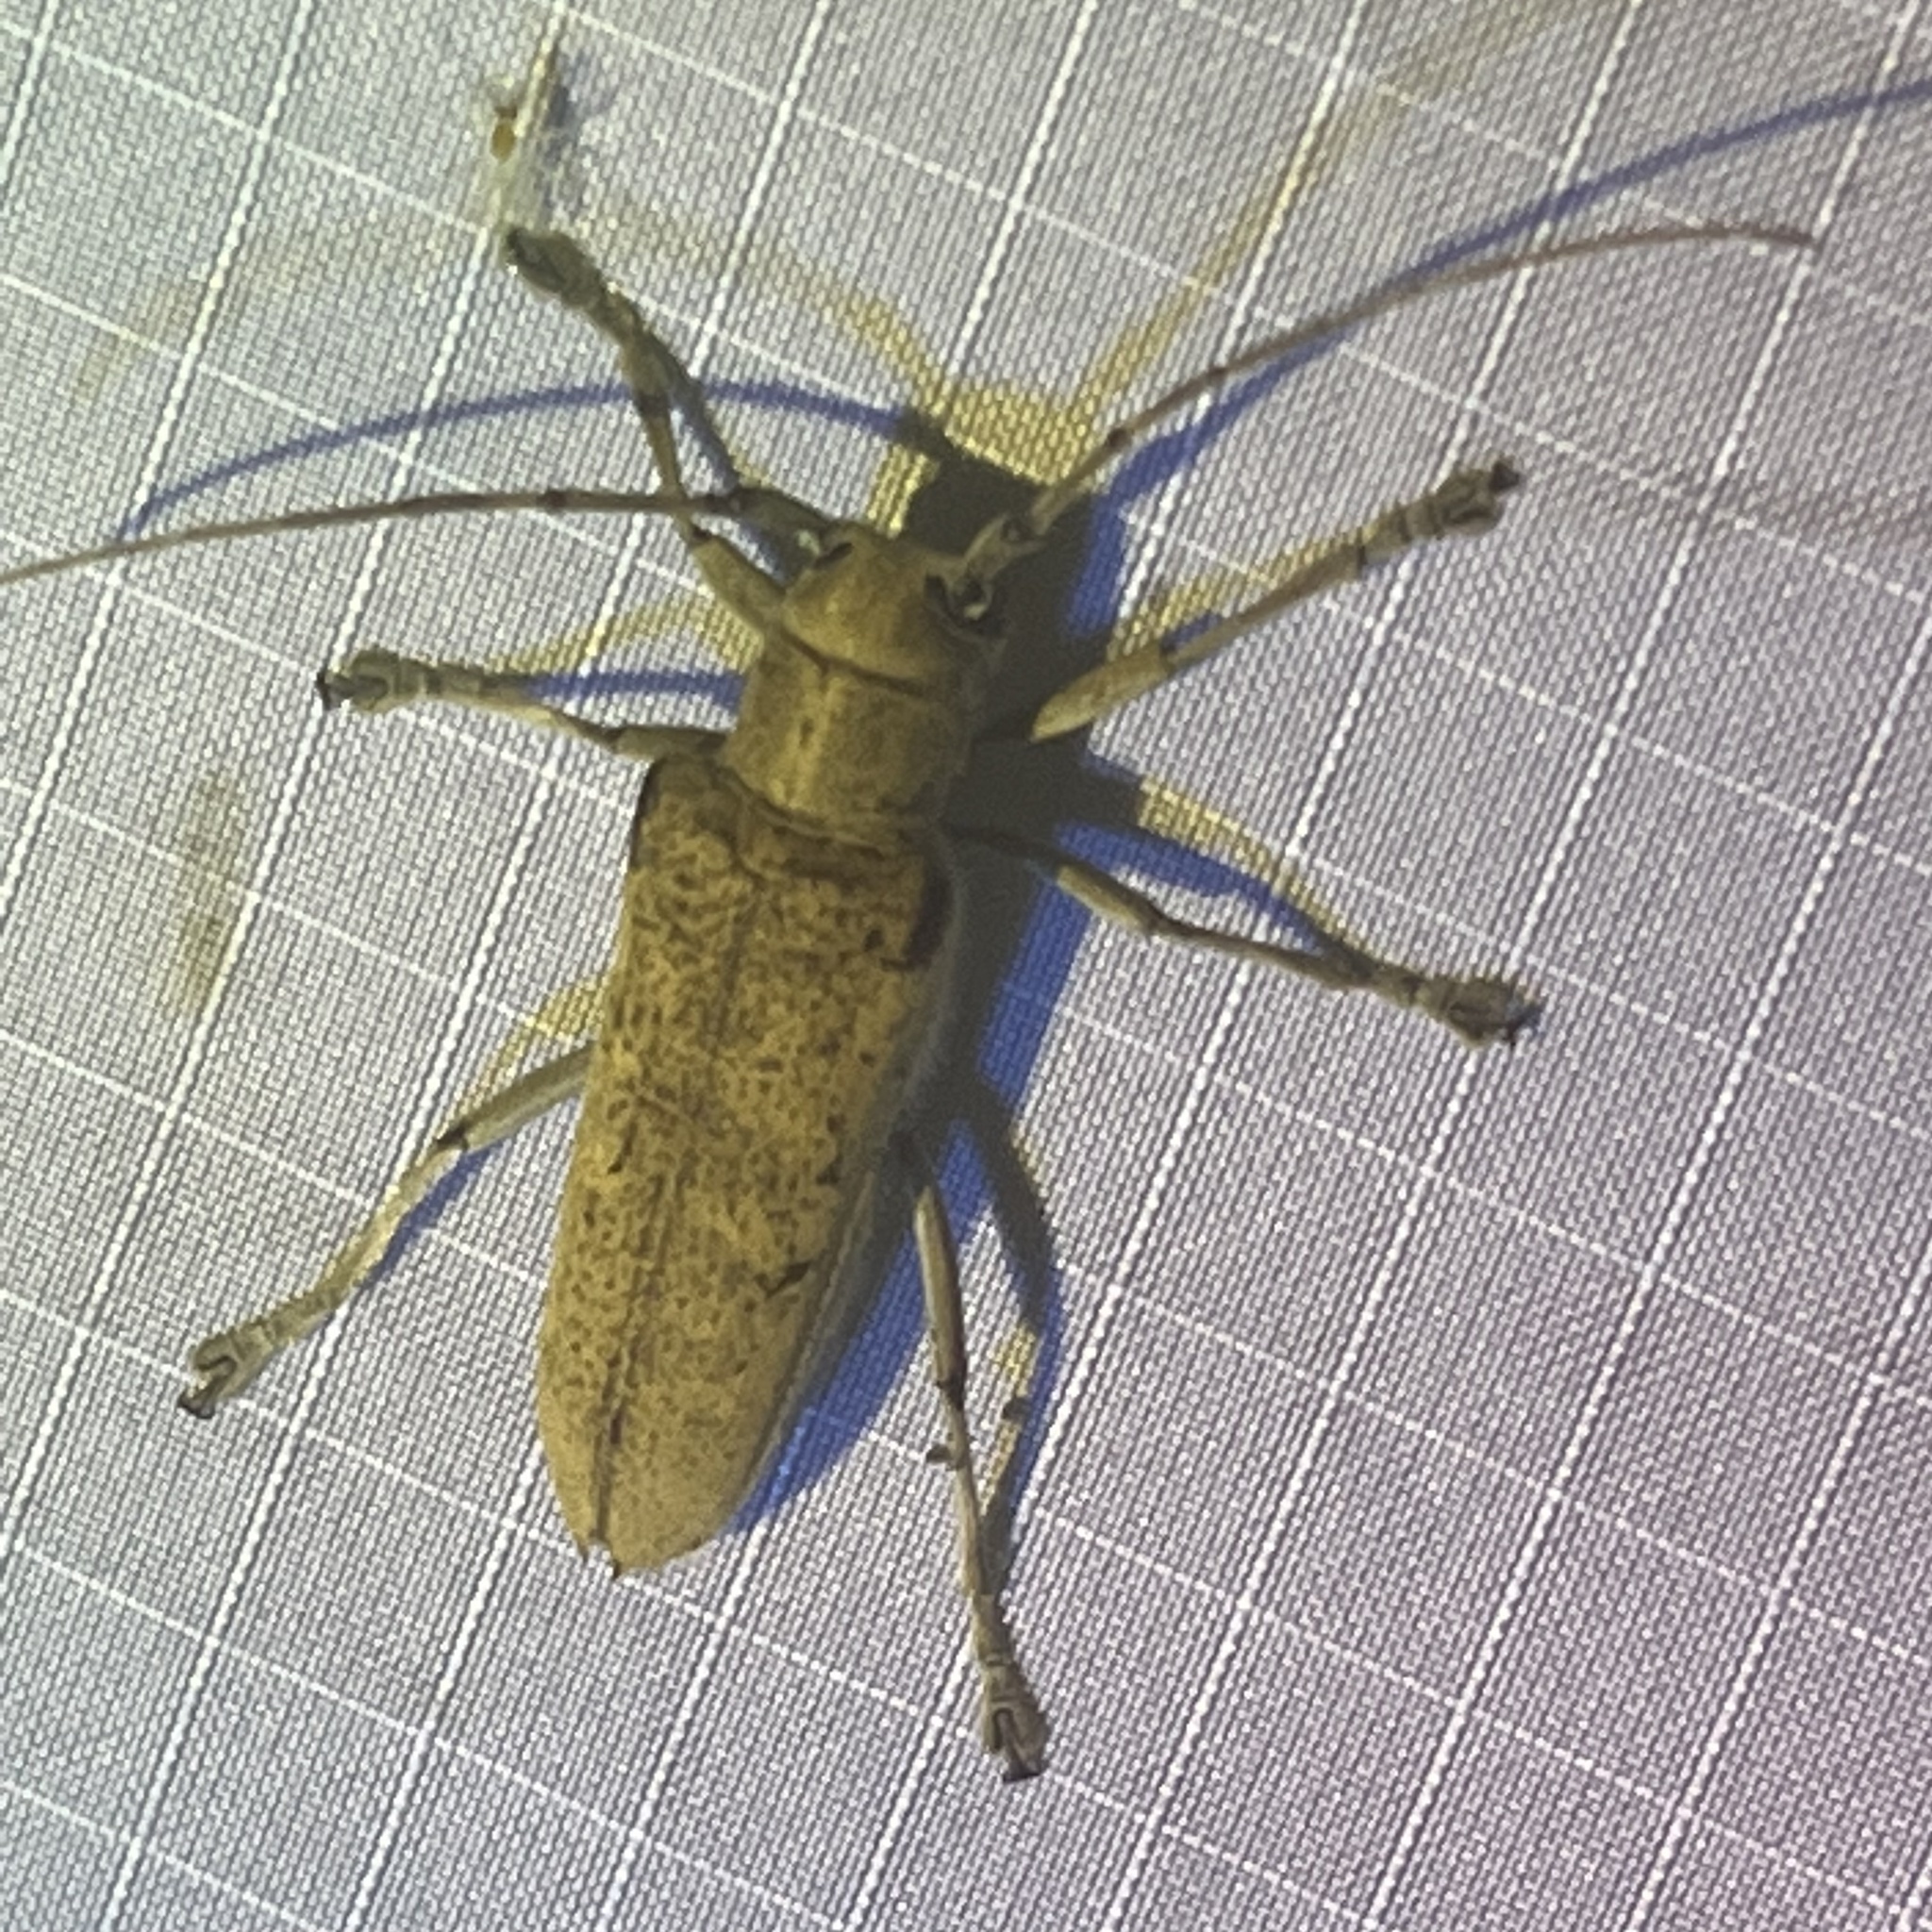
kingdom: Animalia
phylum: Arthropoda
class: Insecta
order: Coleoptera
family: Cerambycidae
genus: Saperda
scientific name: Saperda calcarata
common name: Poplar borer
